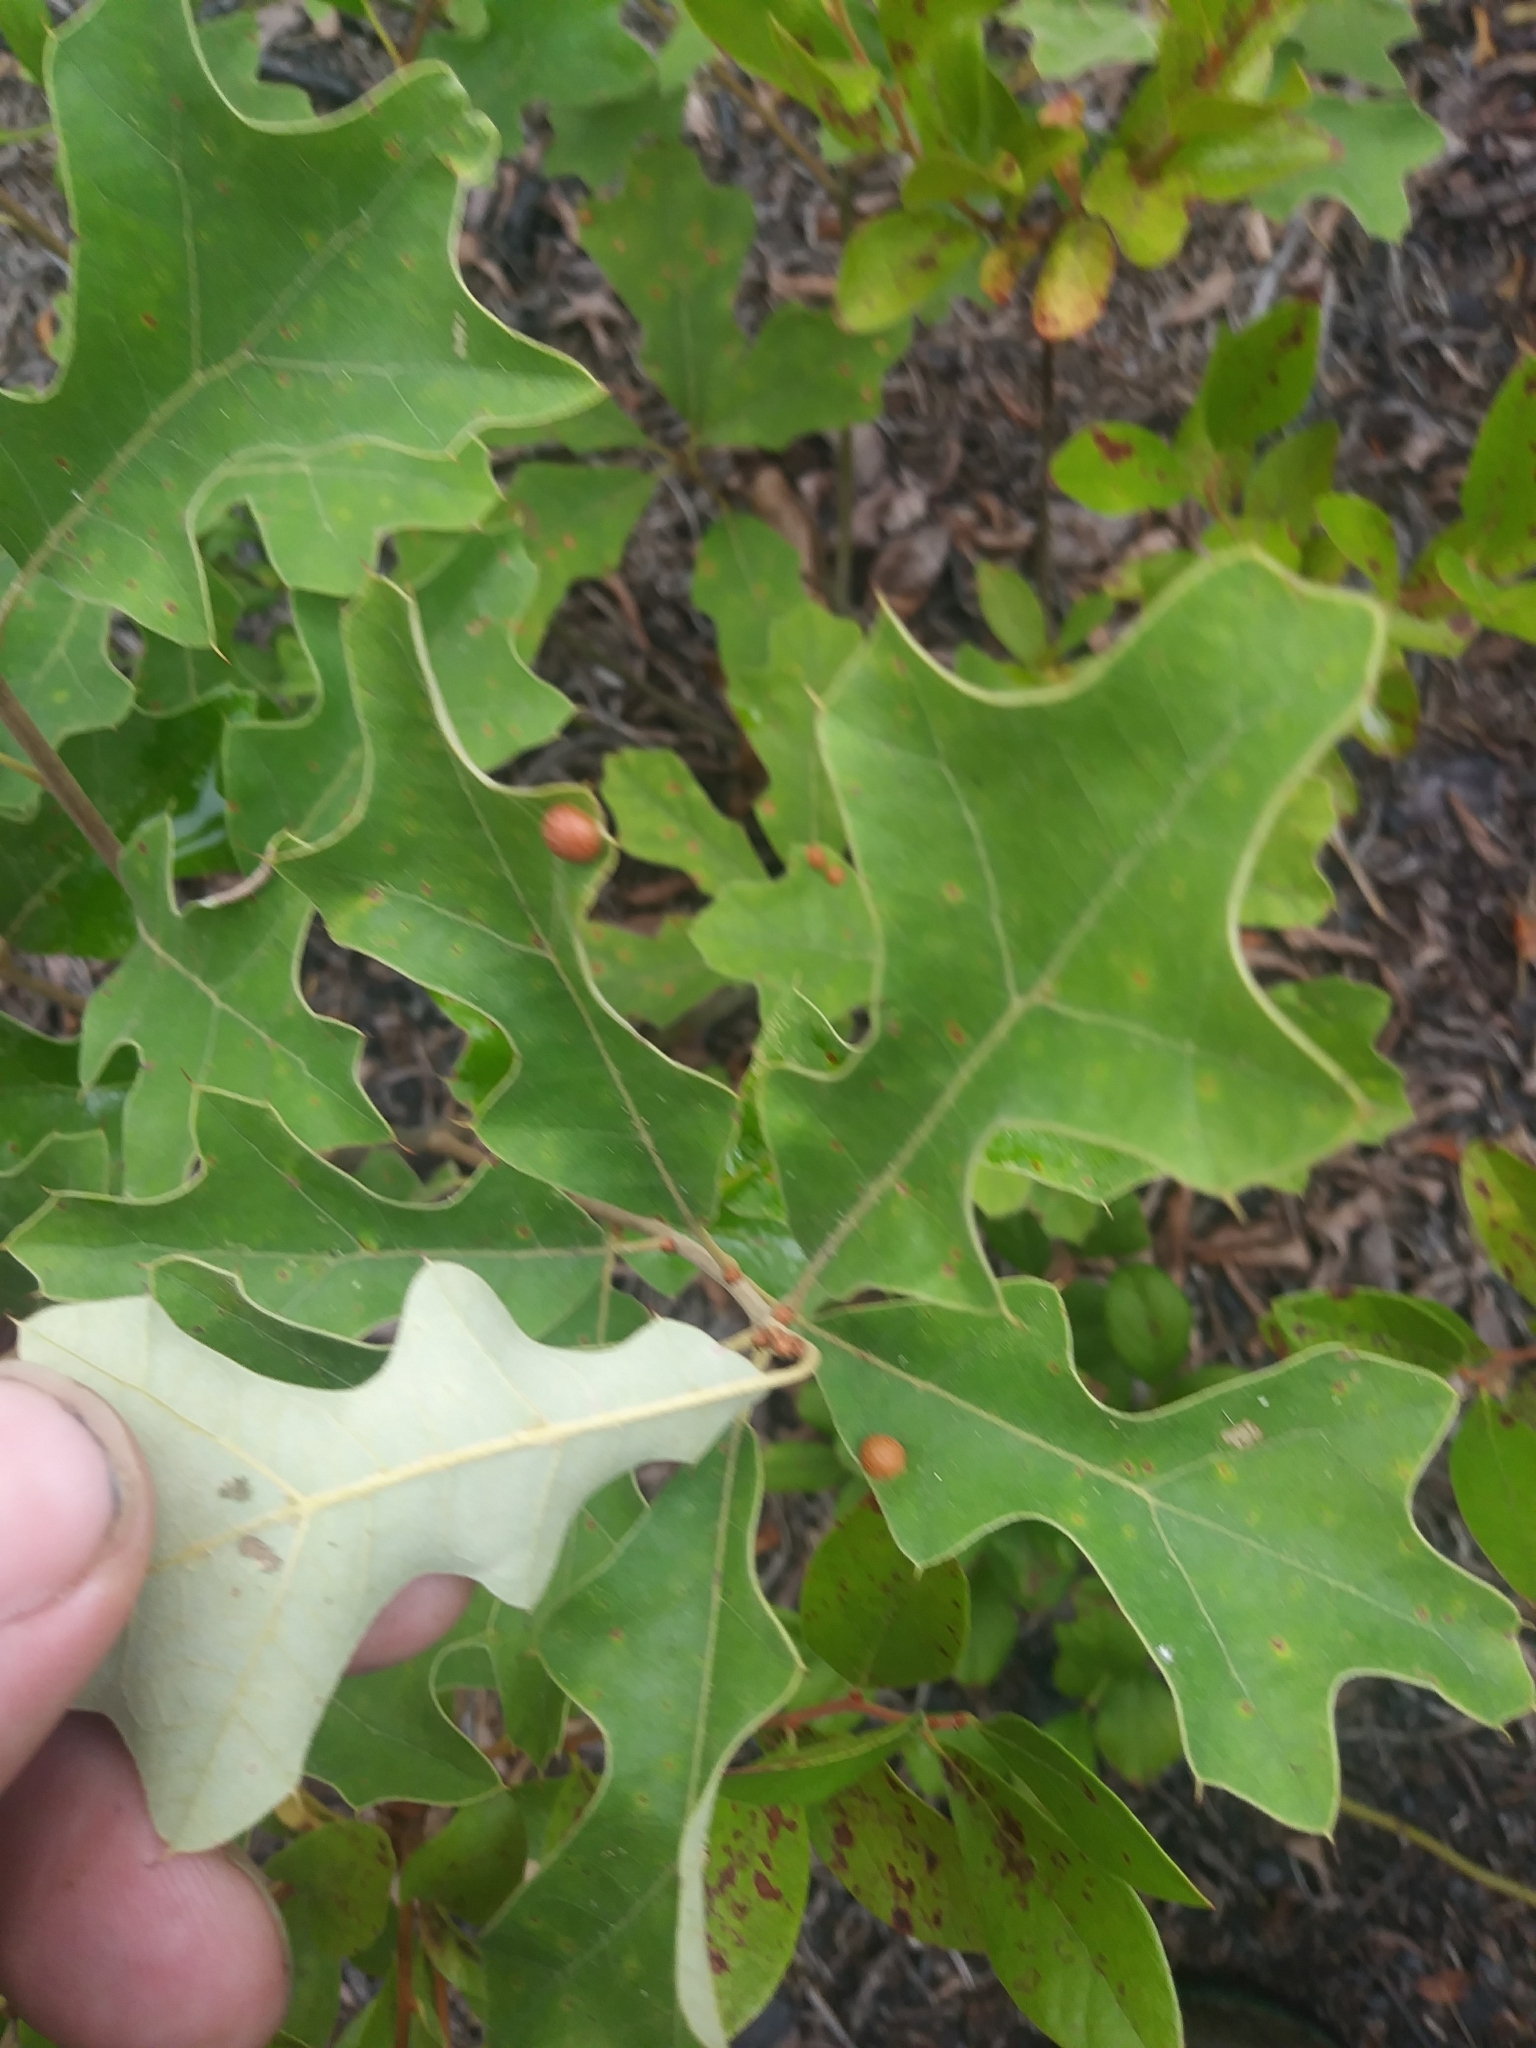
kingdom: Plantae
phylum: Tracheophyta
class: Magnoliopsida
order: Fagales
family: Fagaceae
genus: Quercus
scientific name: Quercus ilicifolia
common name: Bear oak
